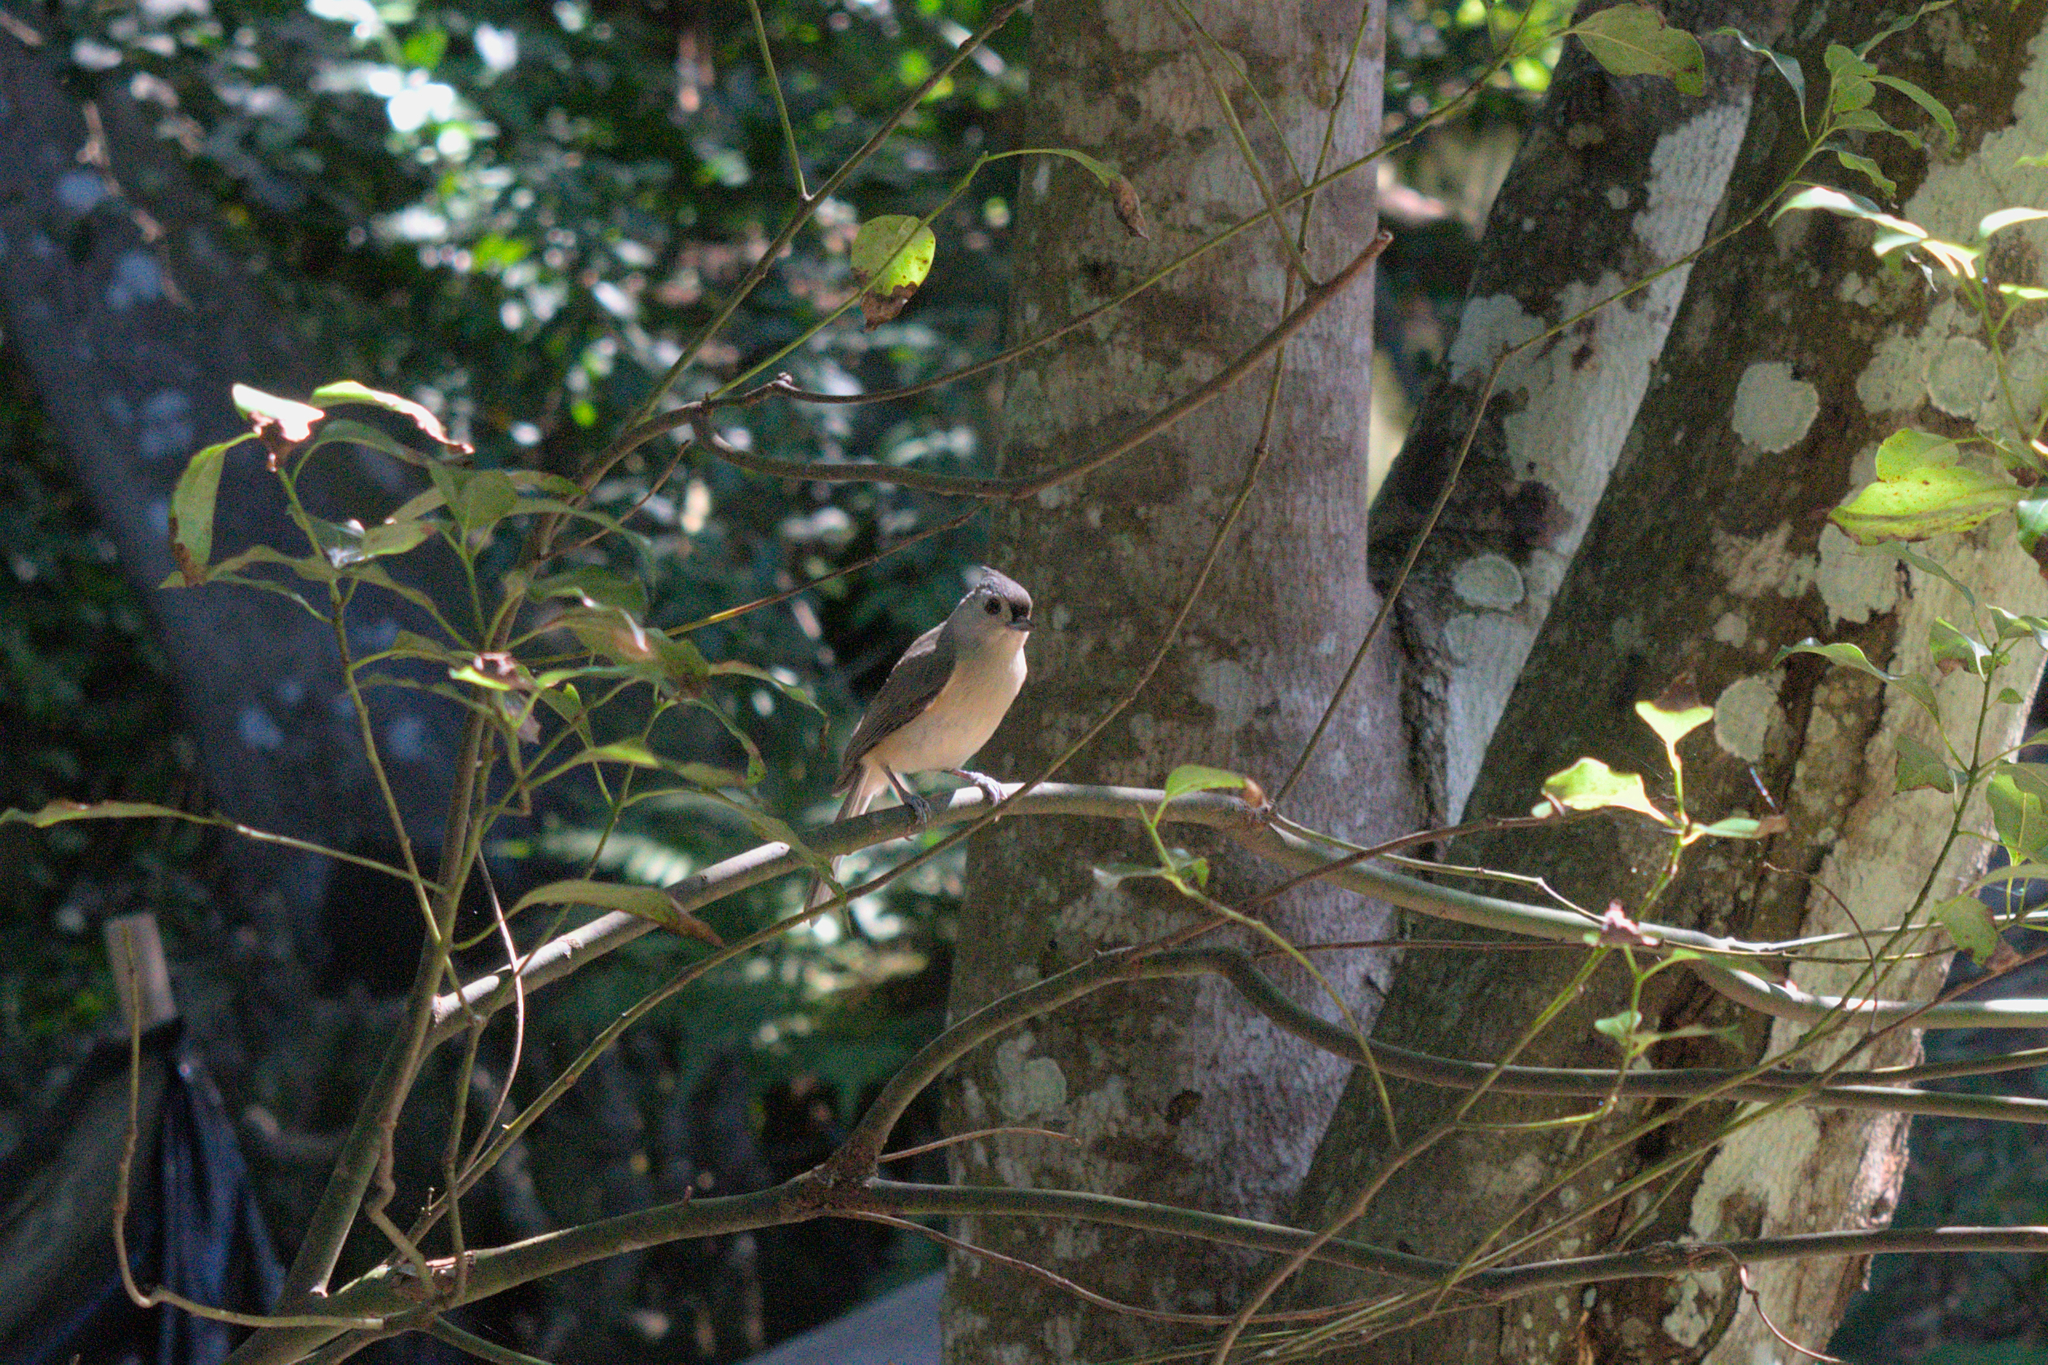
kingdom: Animalia
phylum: Chordata
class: Aves
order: Passeriformes
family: Paridae
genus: Baeolophus
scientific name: Baeolophus bicolor
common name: Tufted titmouse
